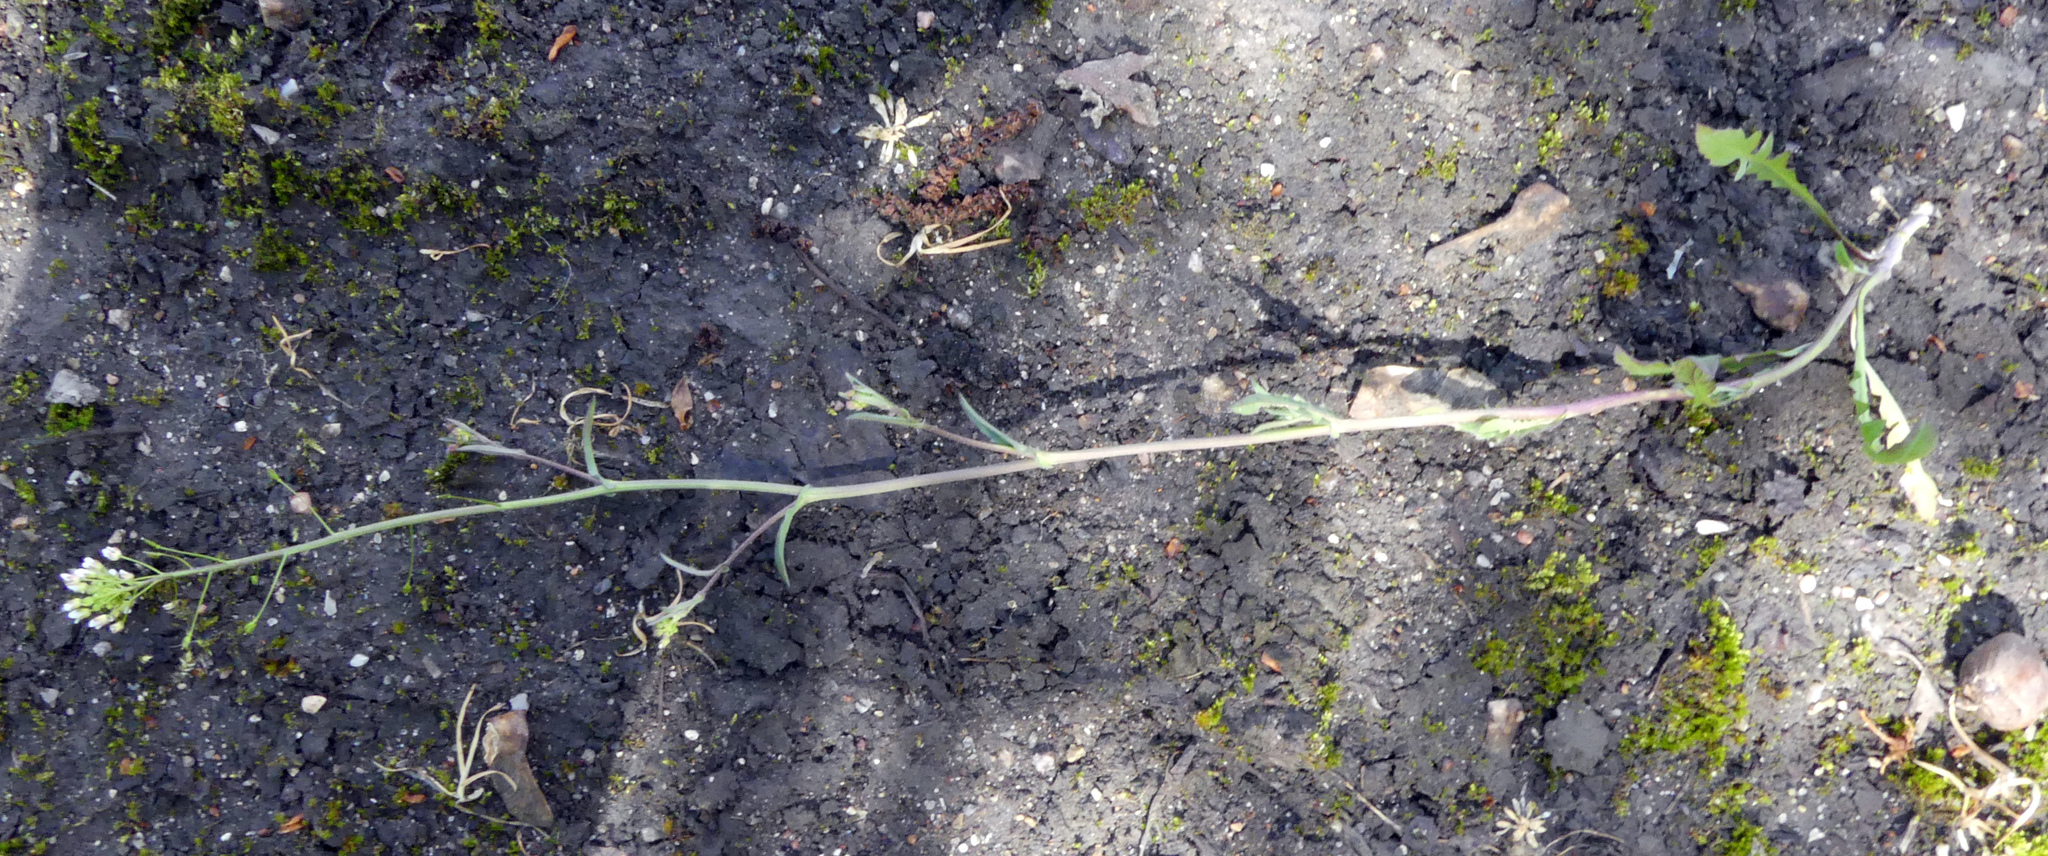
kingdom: Plantae
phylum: Tracheophyta
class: Magnoliopsida
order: Brassicales
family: Brassicaceae
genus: Capsella
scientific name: Capsella bursa-pastoris
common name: Shepherd's purse
